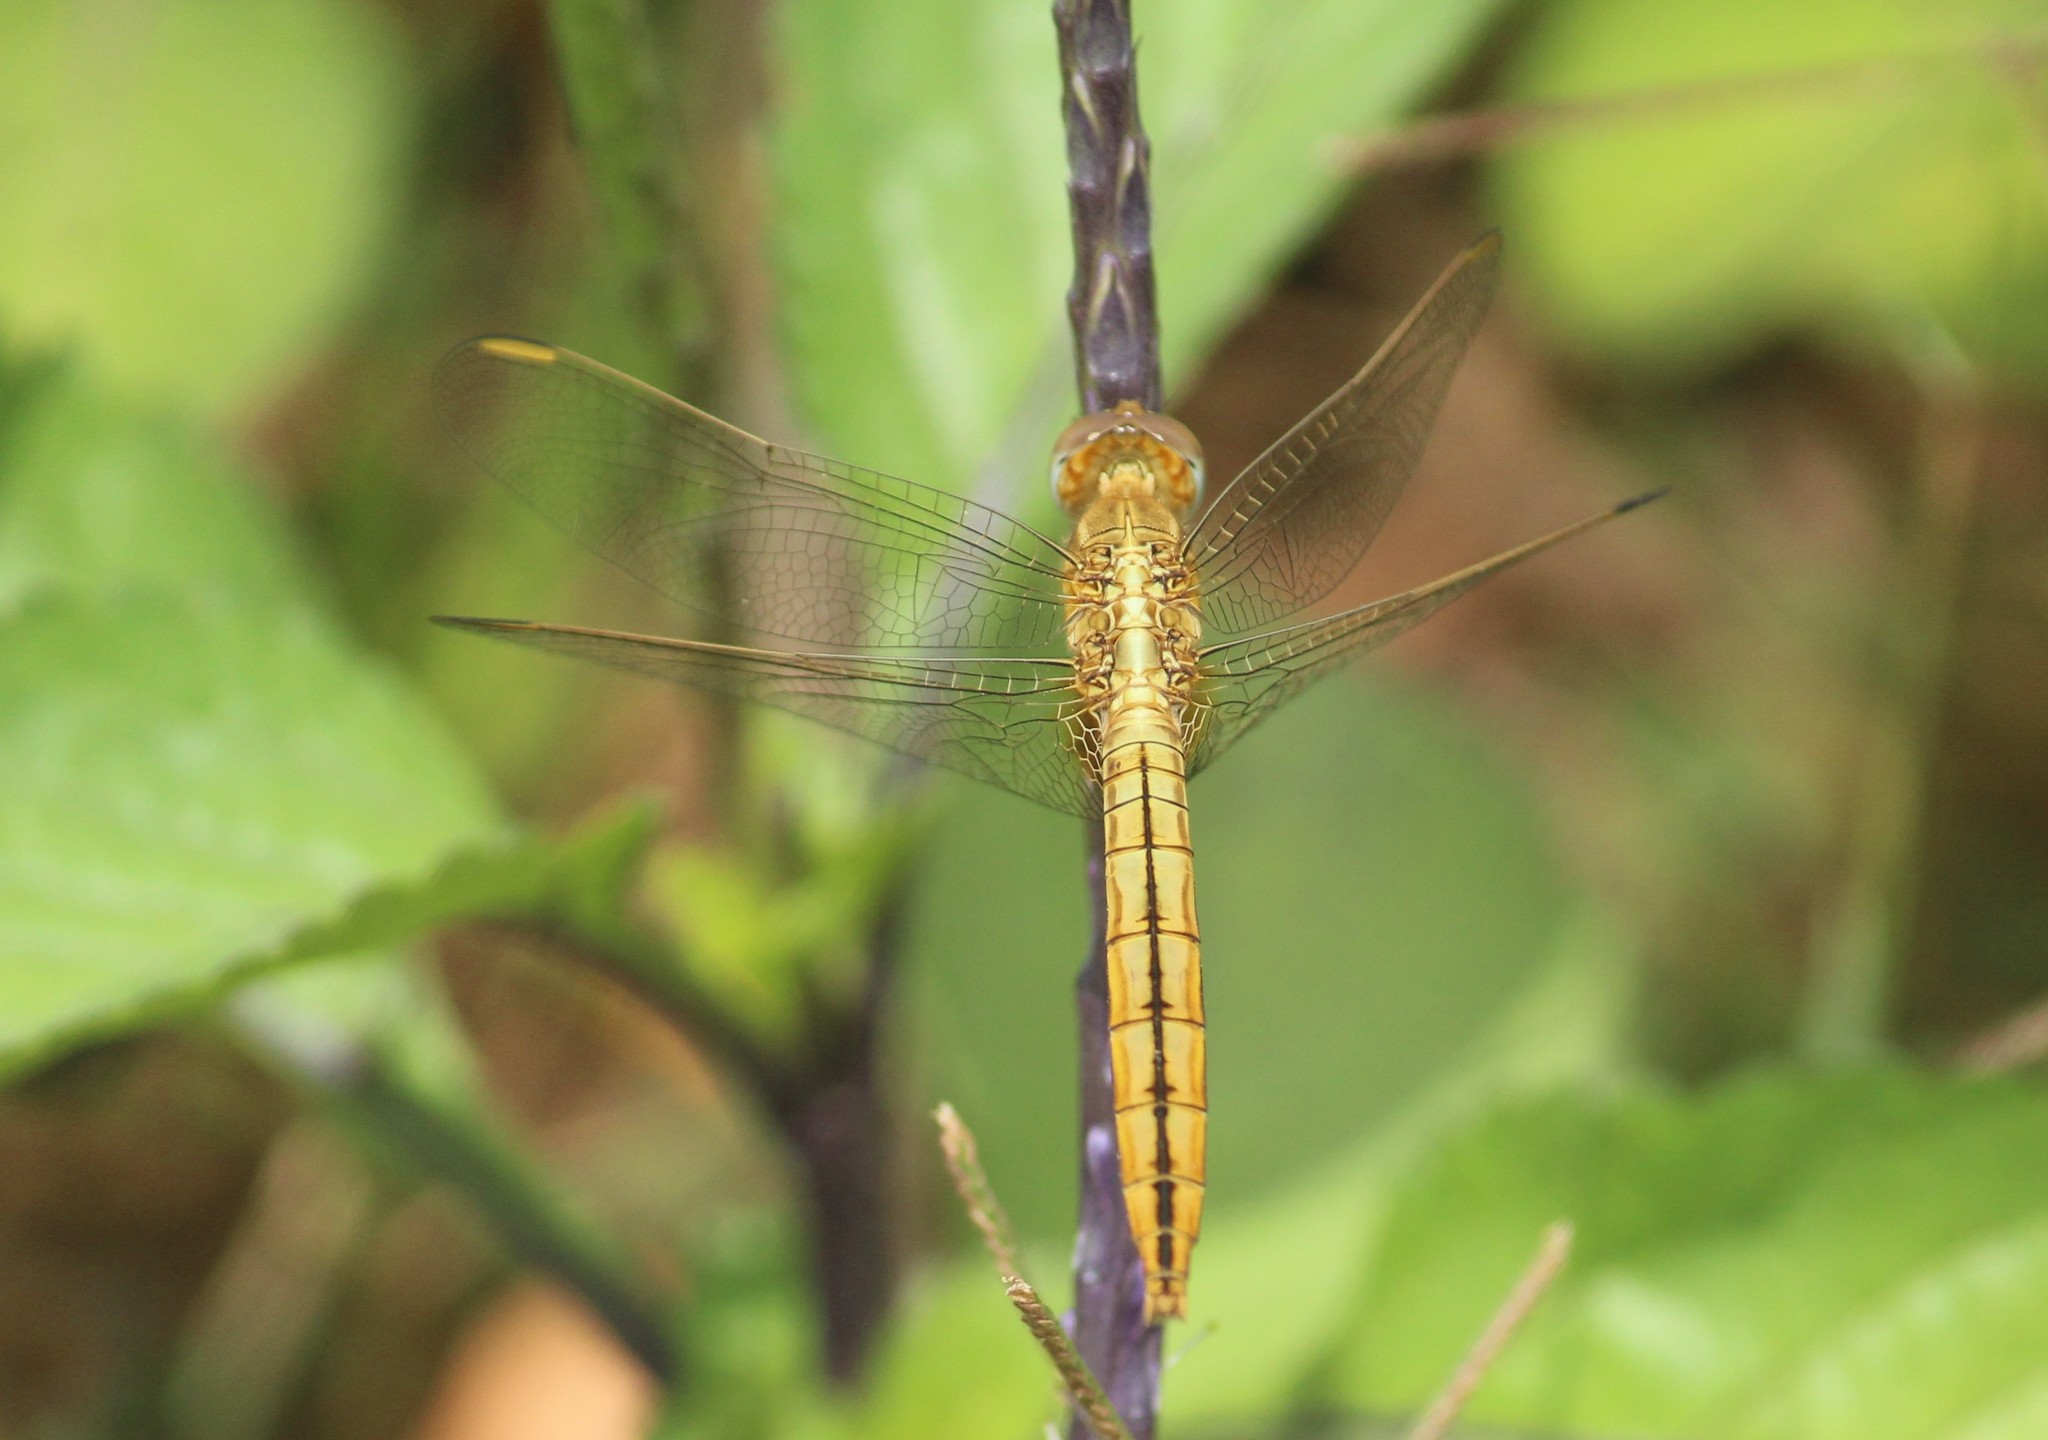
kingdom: Animalia
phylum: Arthropoda
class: Insecta
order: Odonata
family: Libellulidae
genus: Crocothemis
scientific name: Crocothemis servilia
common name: Scarlet skimmer
